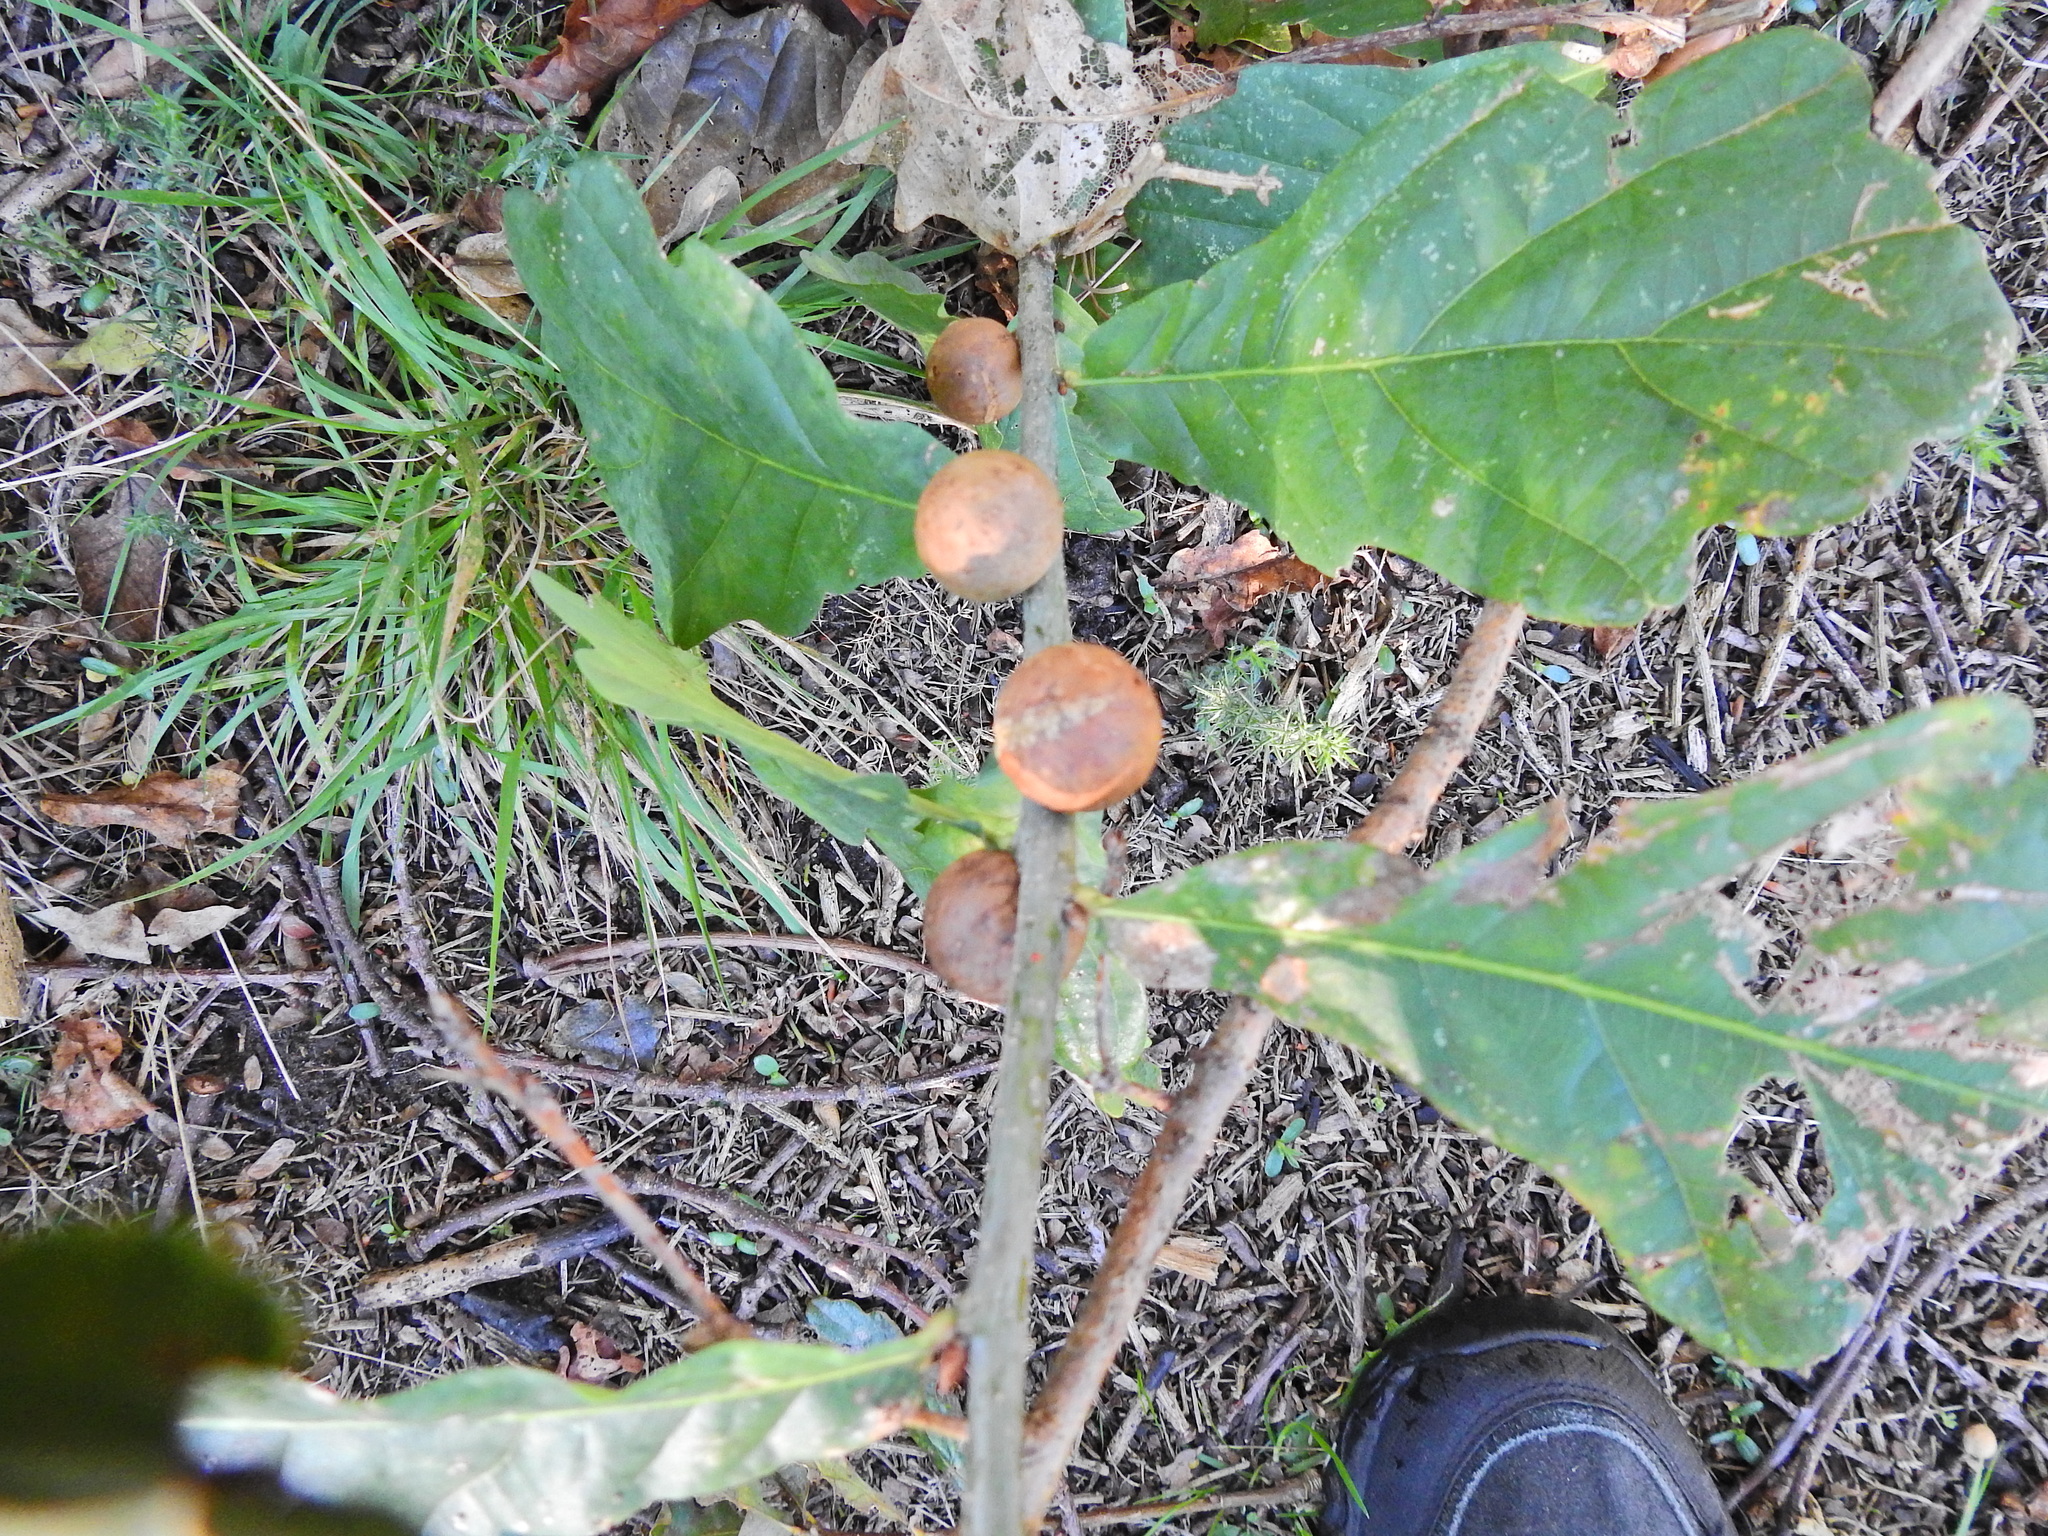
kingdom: Animalia
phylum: Arthropoda
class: Insecta
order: Hymenoptera
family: Cynipidae
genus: Andricus
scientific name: Andricus kollari
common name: Marble gall
